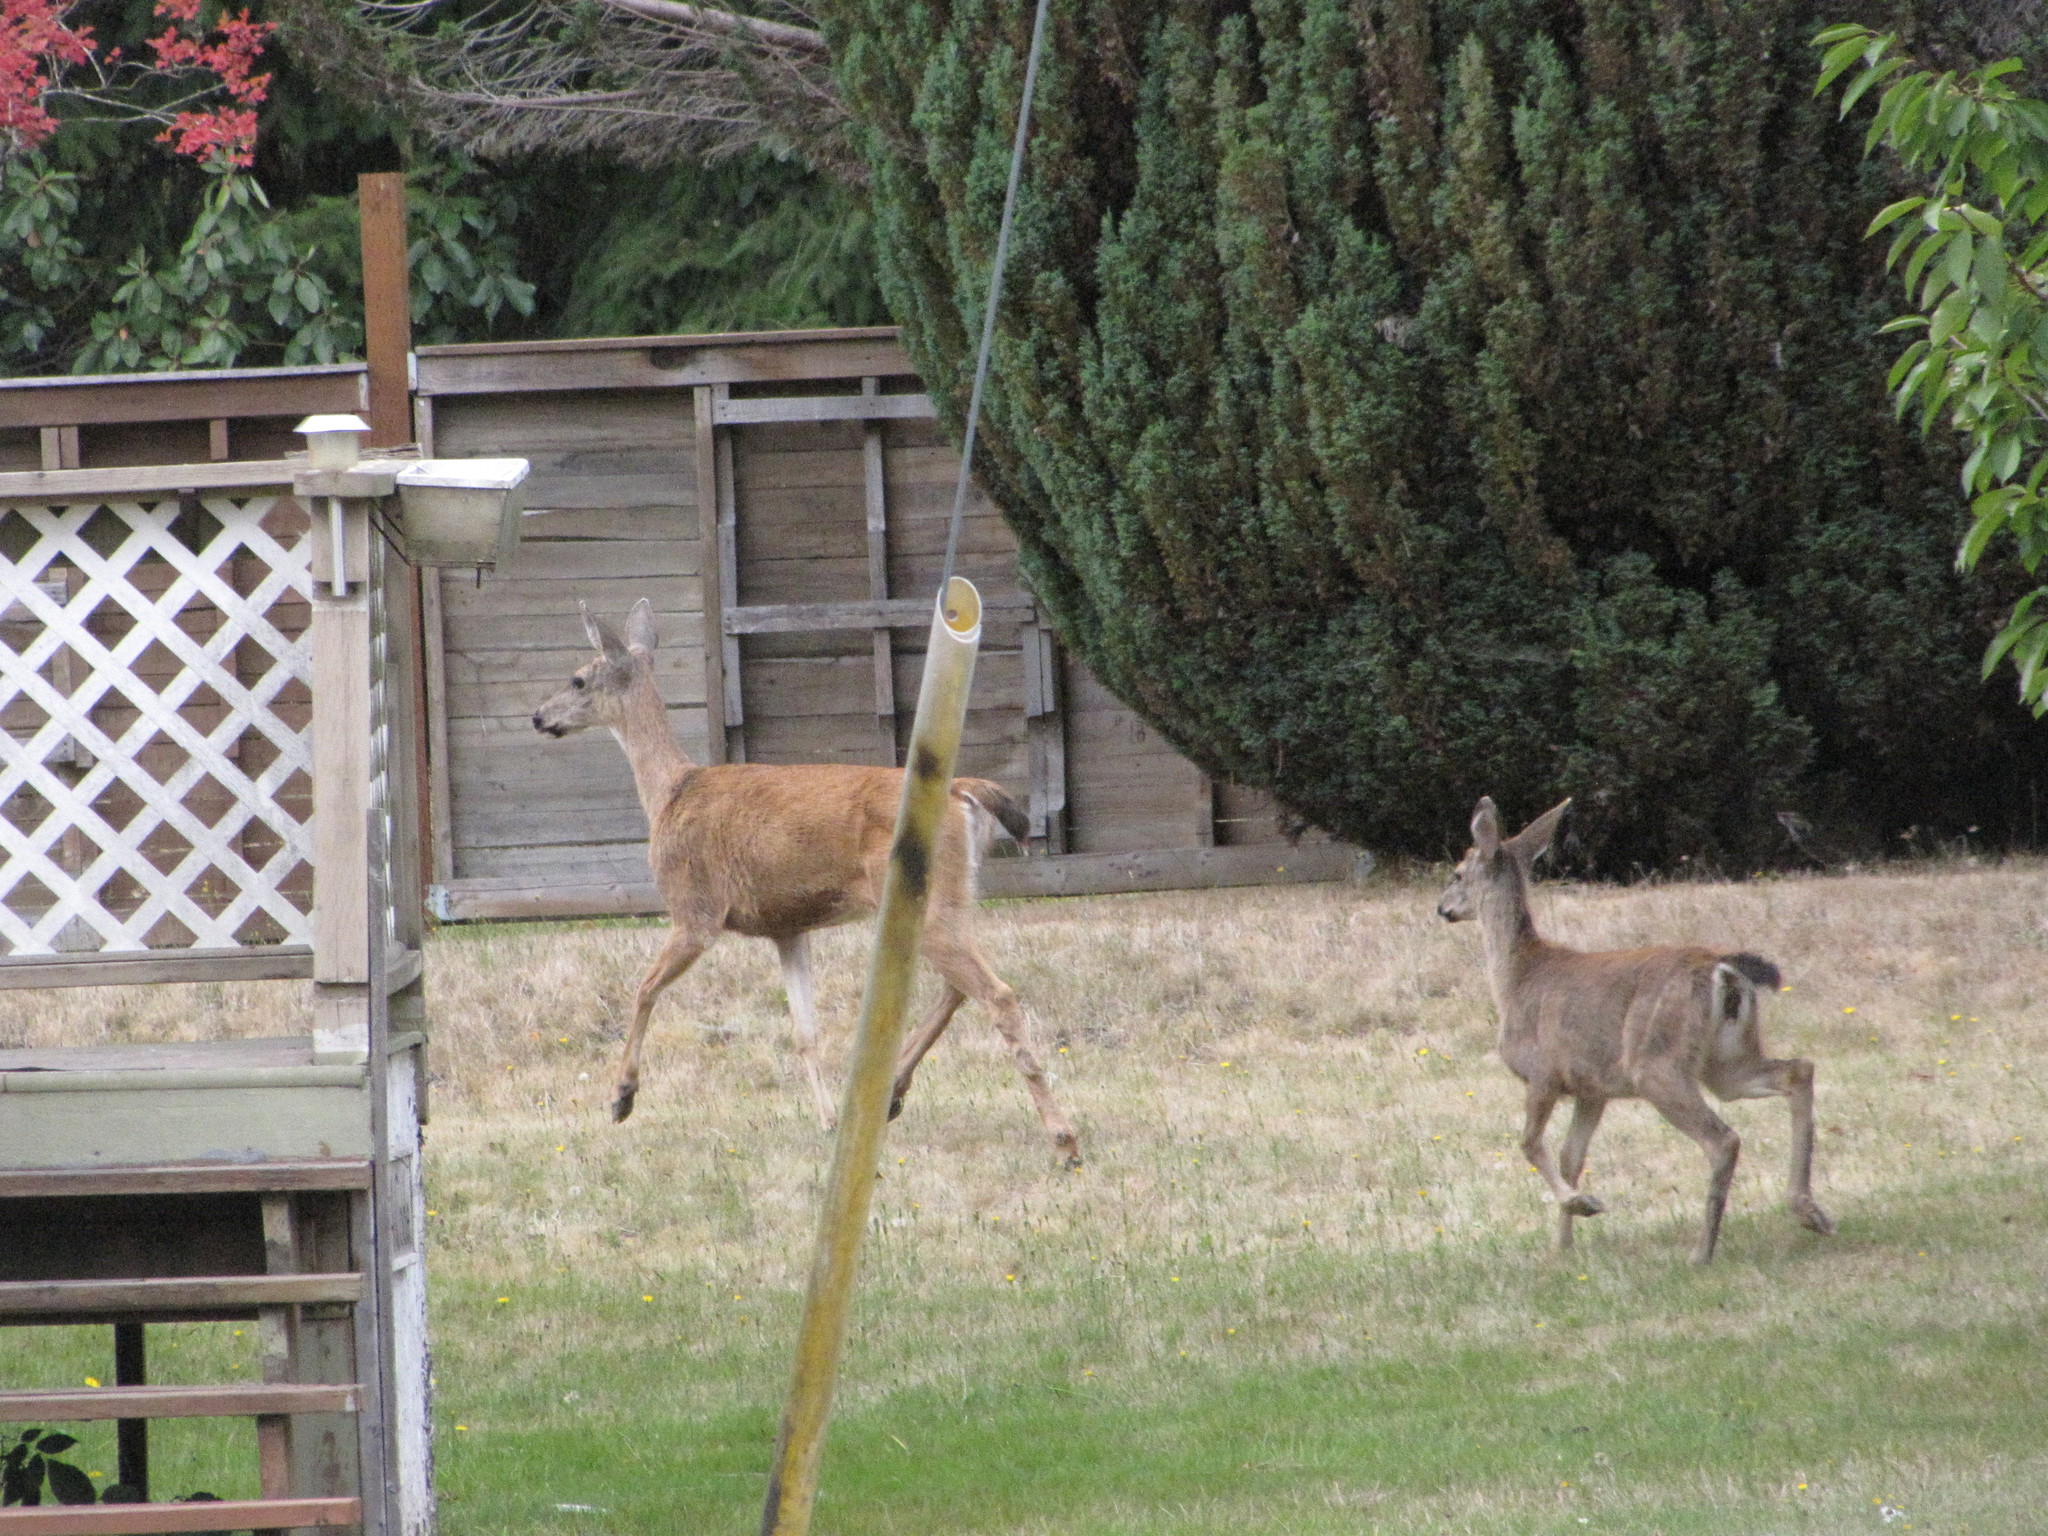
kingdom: Animalia
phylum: Chordata
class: Mammalia
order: Artiodactyla
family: Cervidae
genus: Odocoileus
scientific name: Odocoileus hemionus
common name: Mule deer
